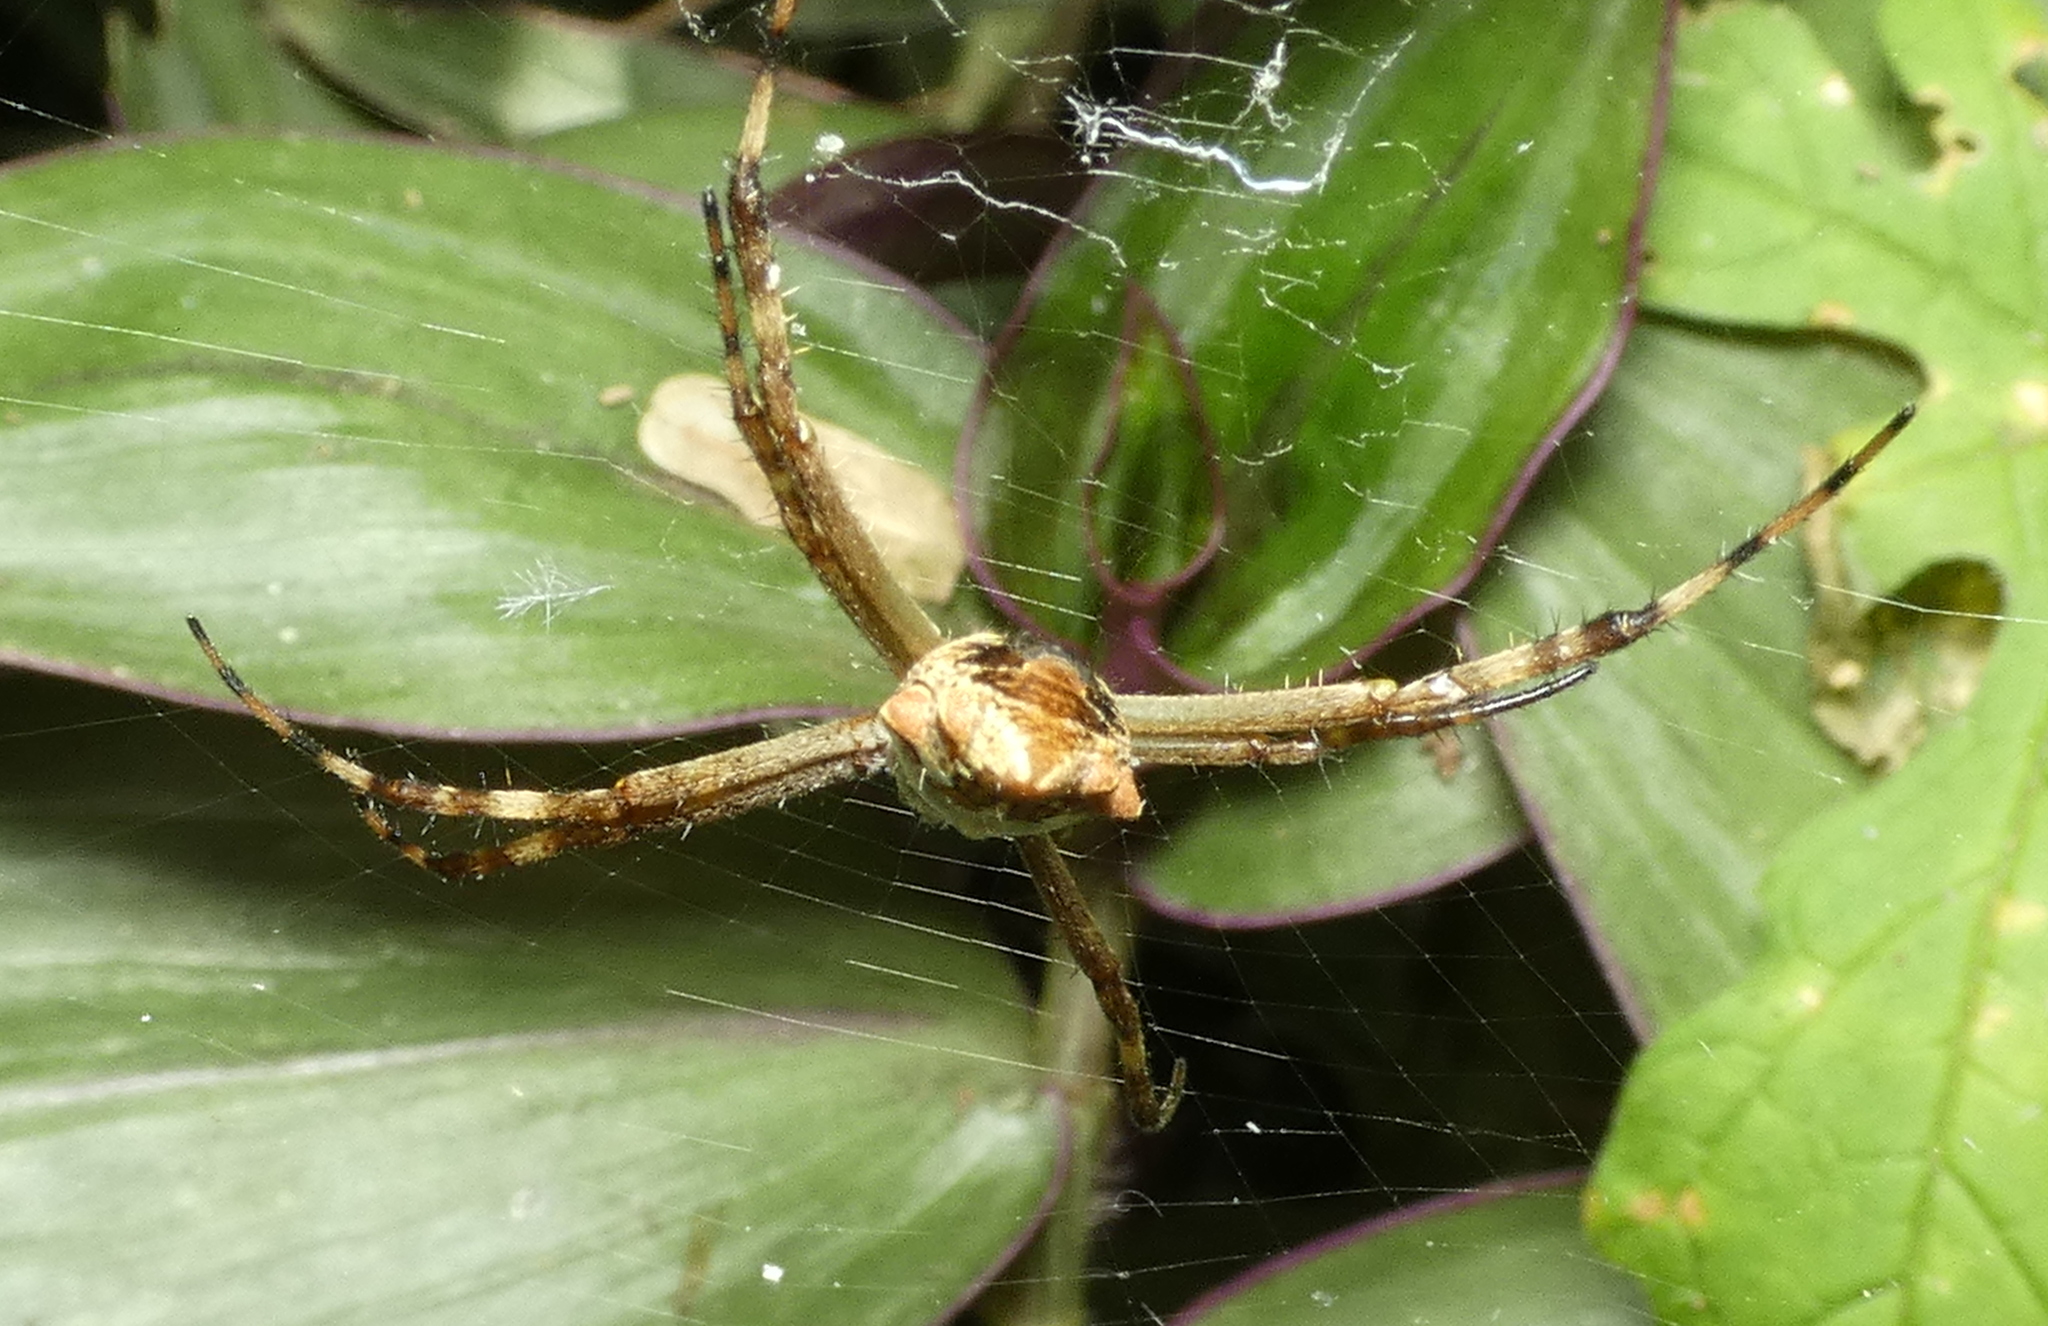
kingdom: Animalia
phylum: Arthropoda
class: Arachnida
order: Araneae
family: Araneidae
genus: Argiope
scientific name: Argiope argentata
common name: Orb weavers
